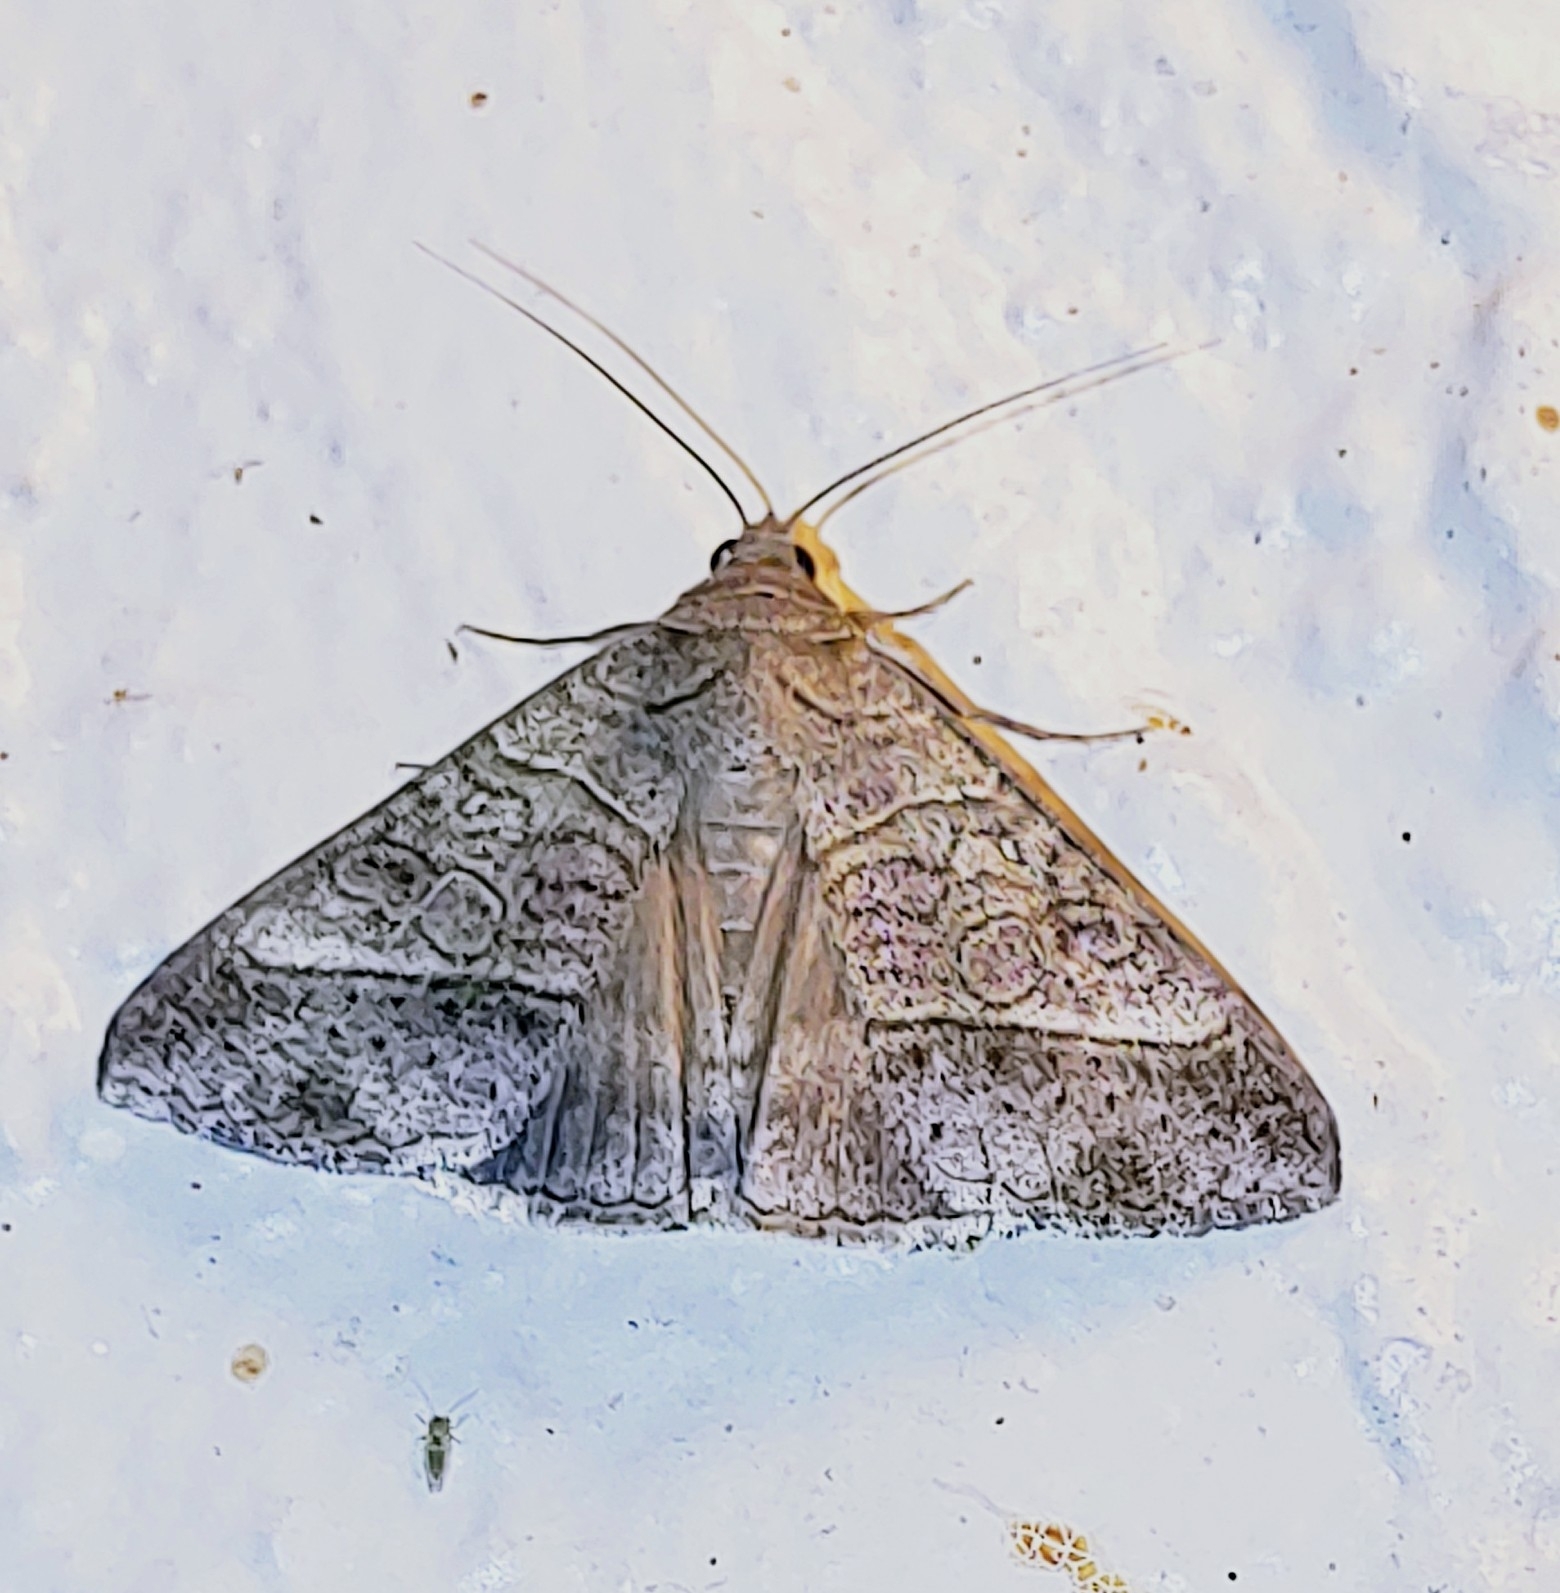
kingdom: Animalia
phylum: Arthropoda
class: Insecta
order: Lepidoptera
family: Erebidae
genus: Mocis
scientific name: Mocis latipes
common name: Striped grass looper
